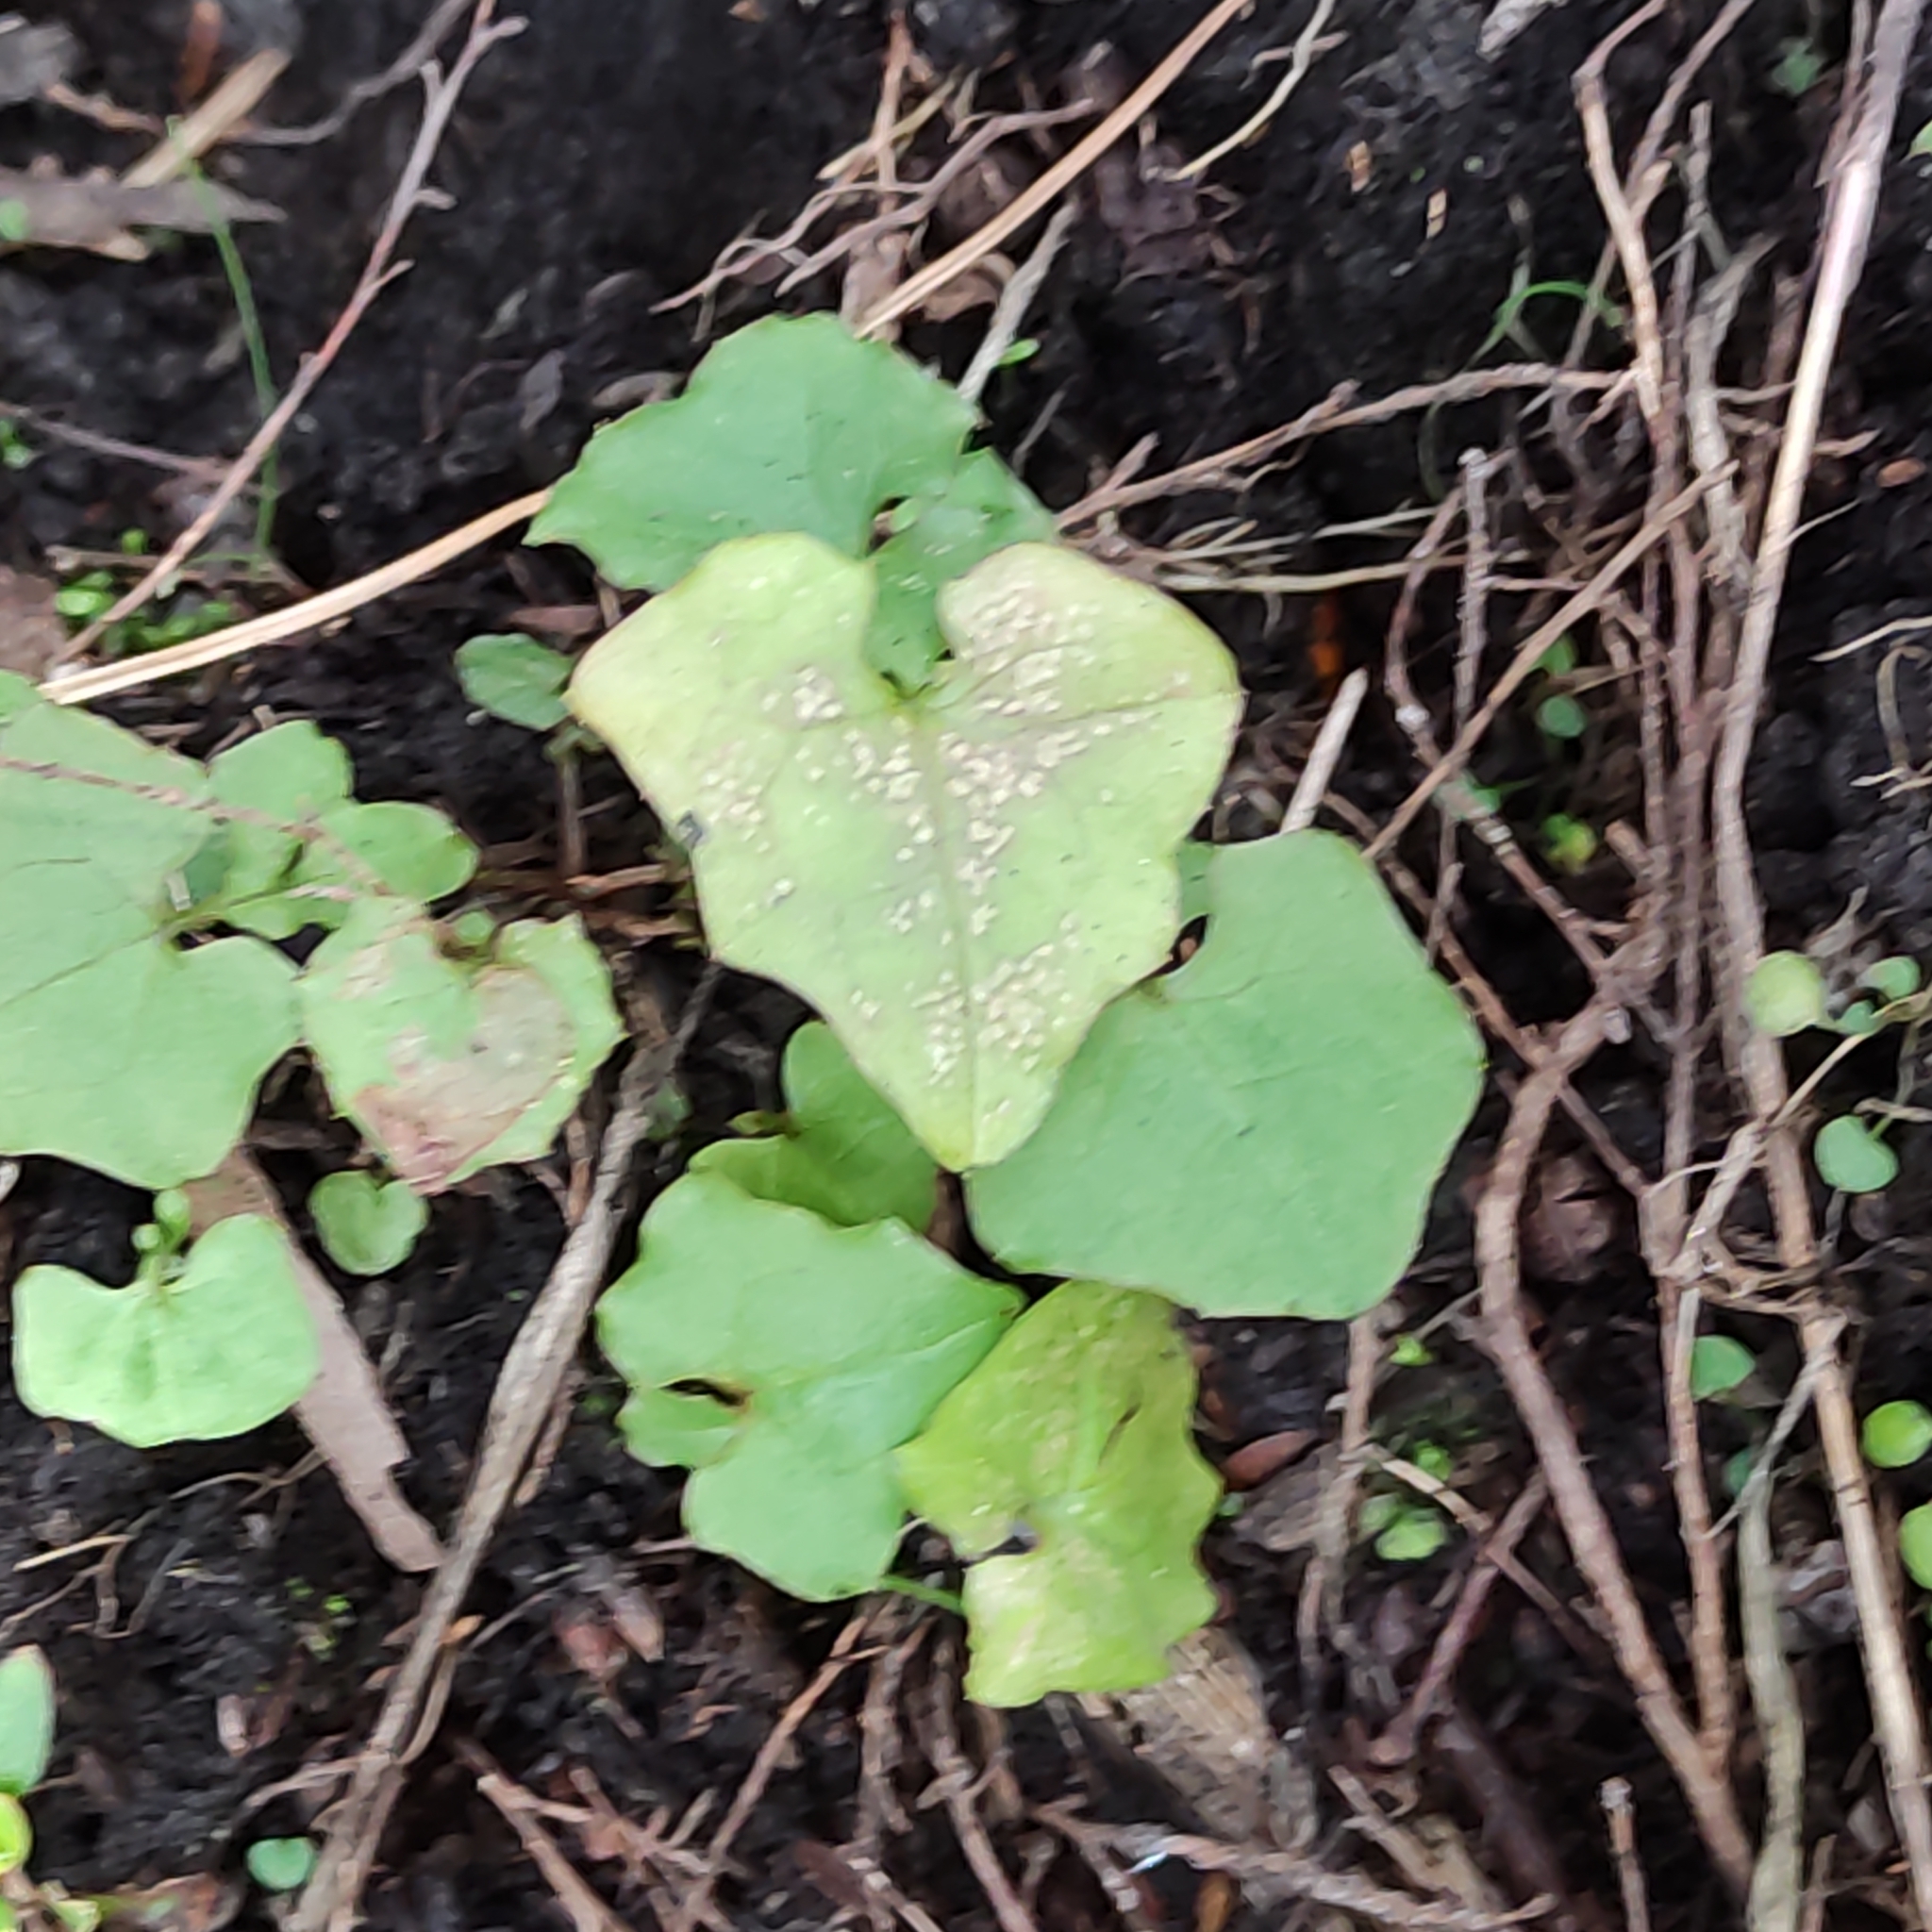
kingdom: Plantae
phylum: Tracheophyta
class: Magnoliopsida
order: Asterales
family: Asteraceae
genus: Mycelis
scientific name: Mycelis muralis
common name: Wall lettuce
